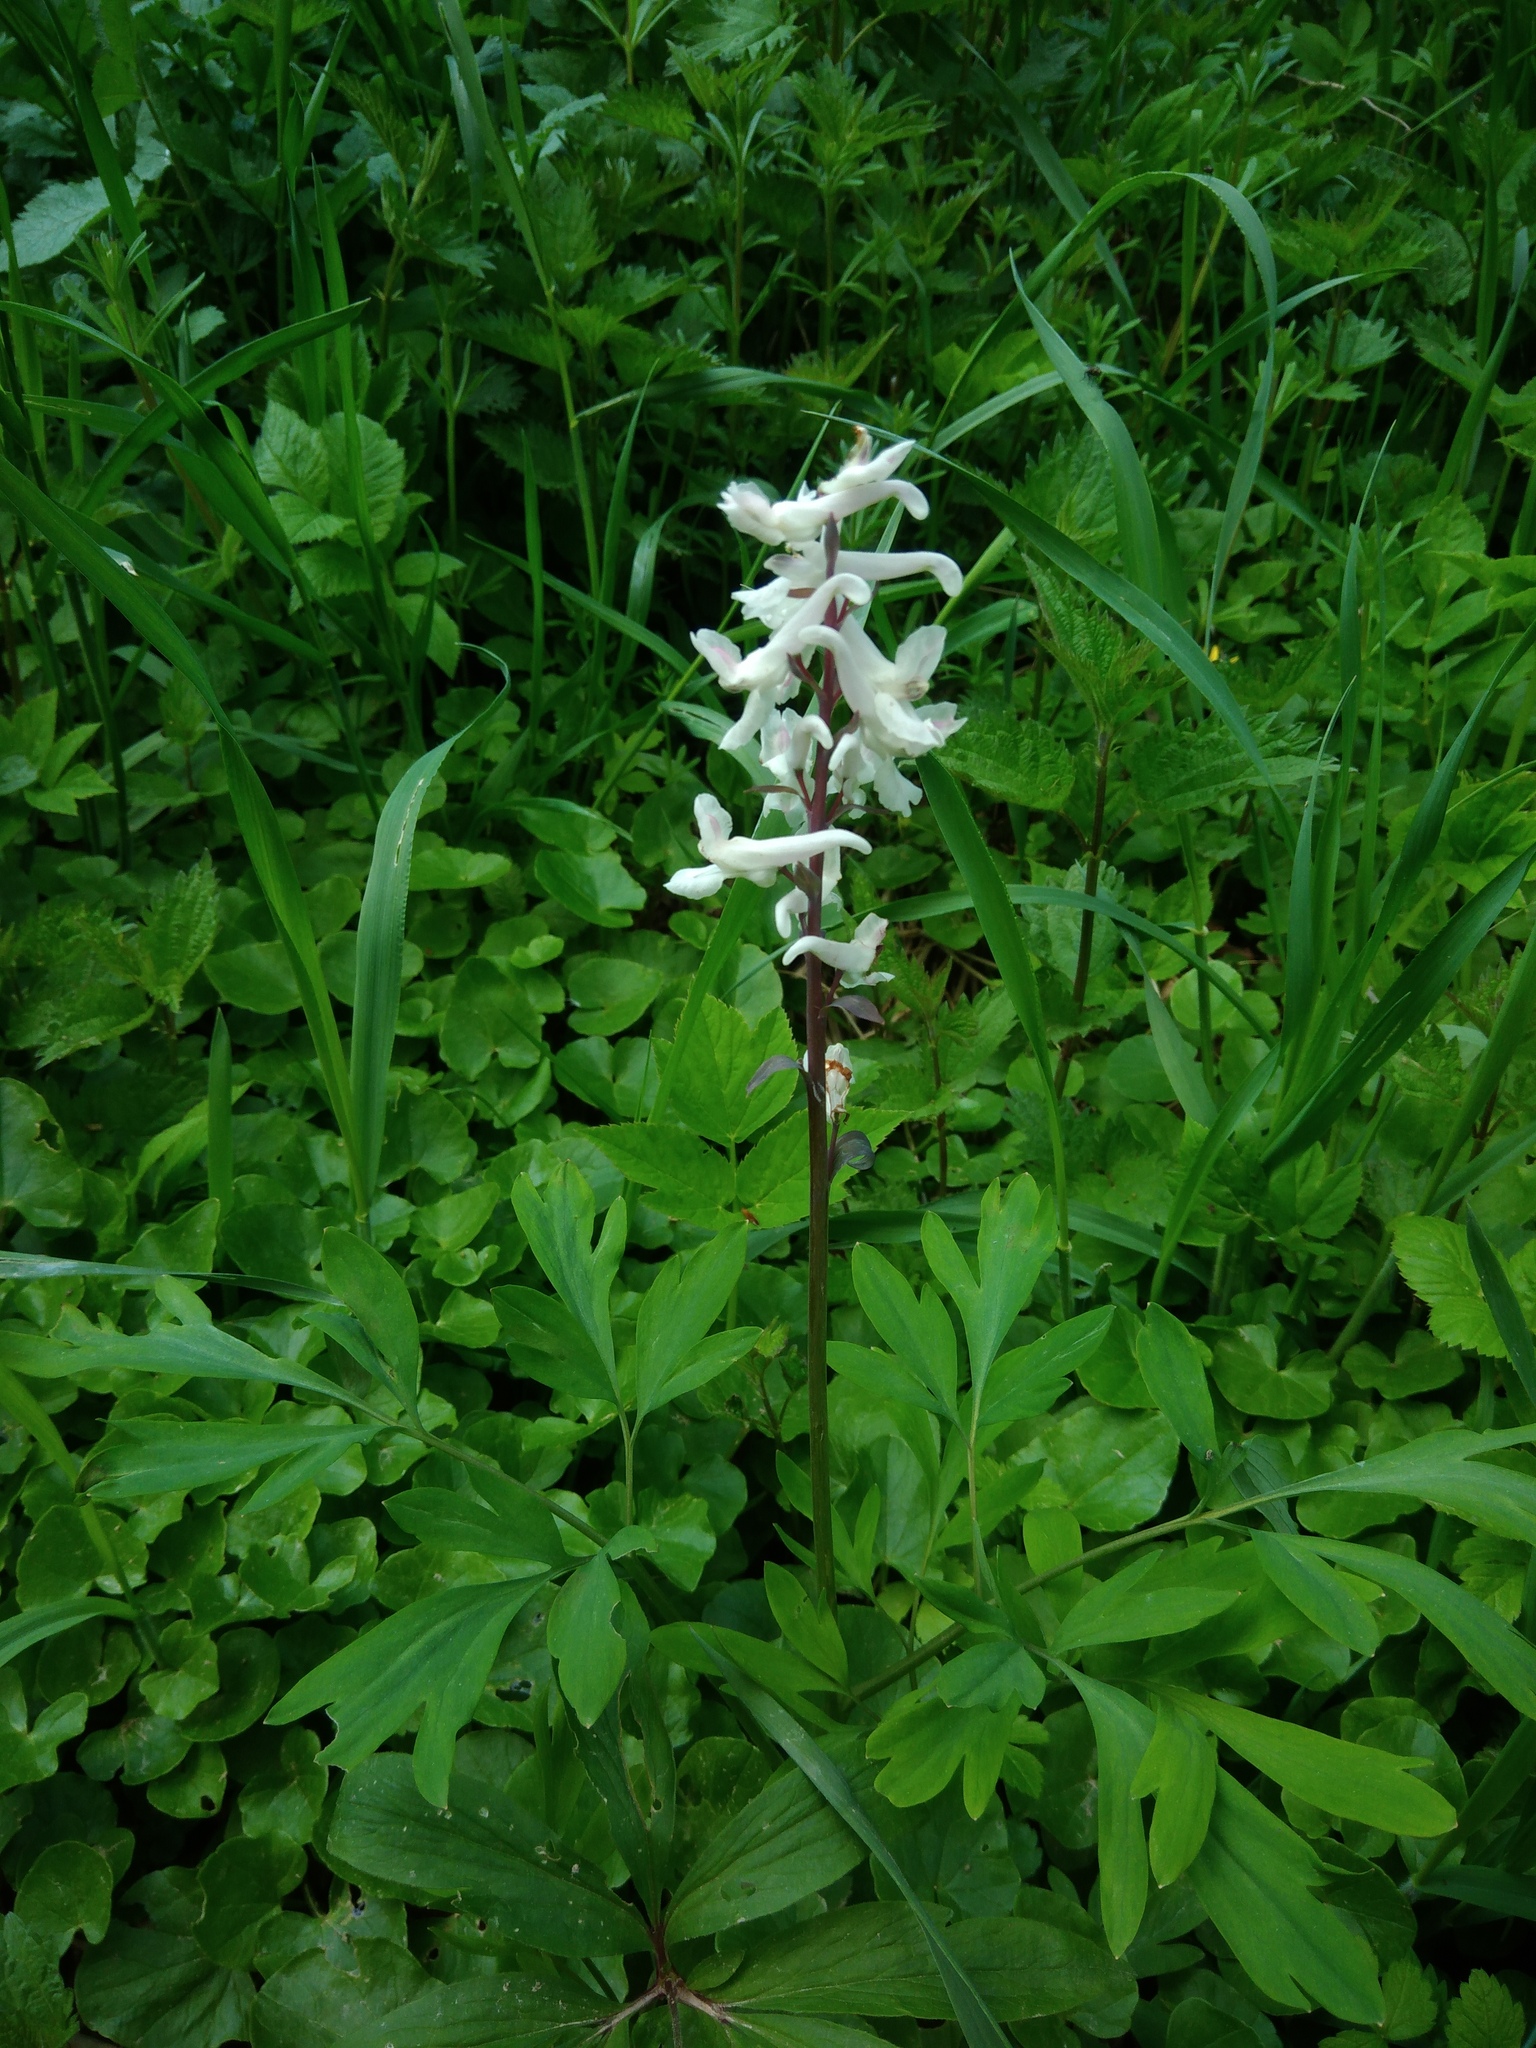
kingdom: Plantae
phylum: Tracheophyta
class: Magnoliopsida
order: Ranunculales
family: Papaveraceae
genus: Corydalis
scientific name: Corydalis cava
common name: Hollowroot
